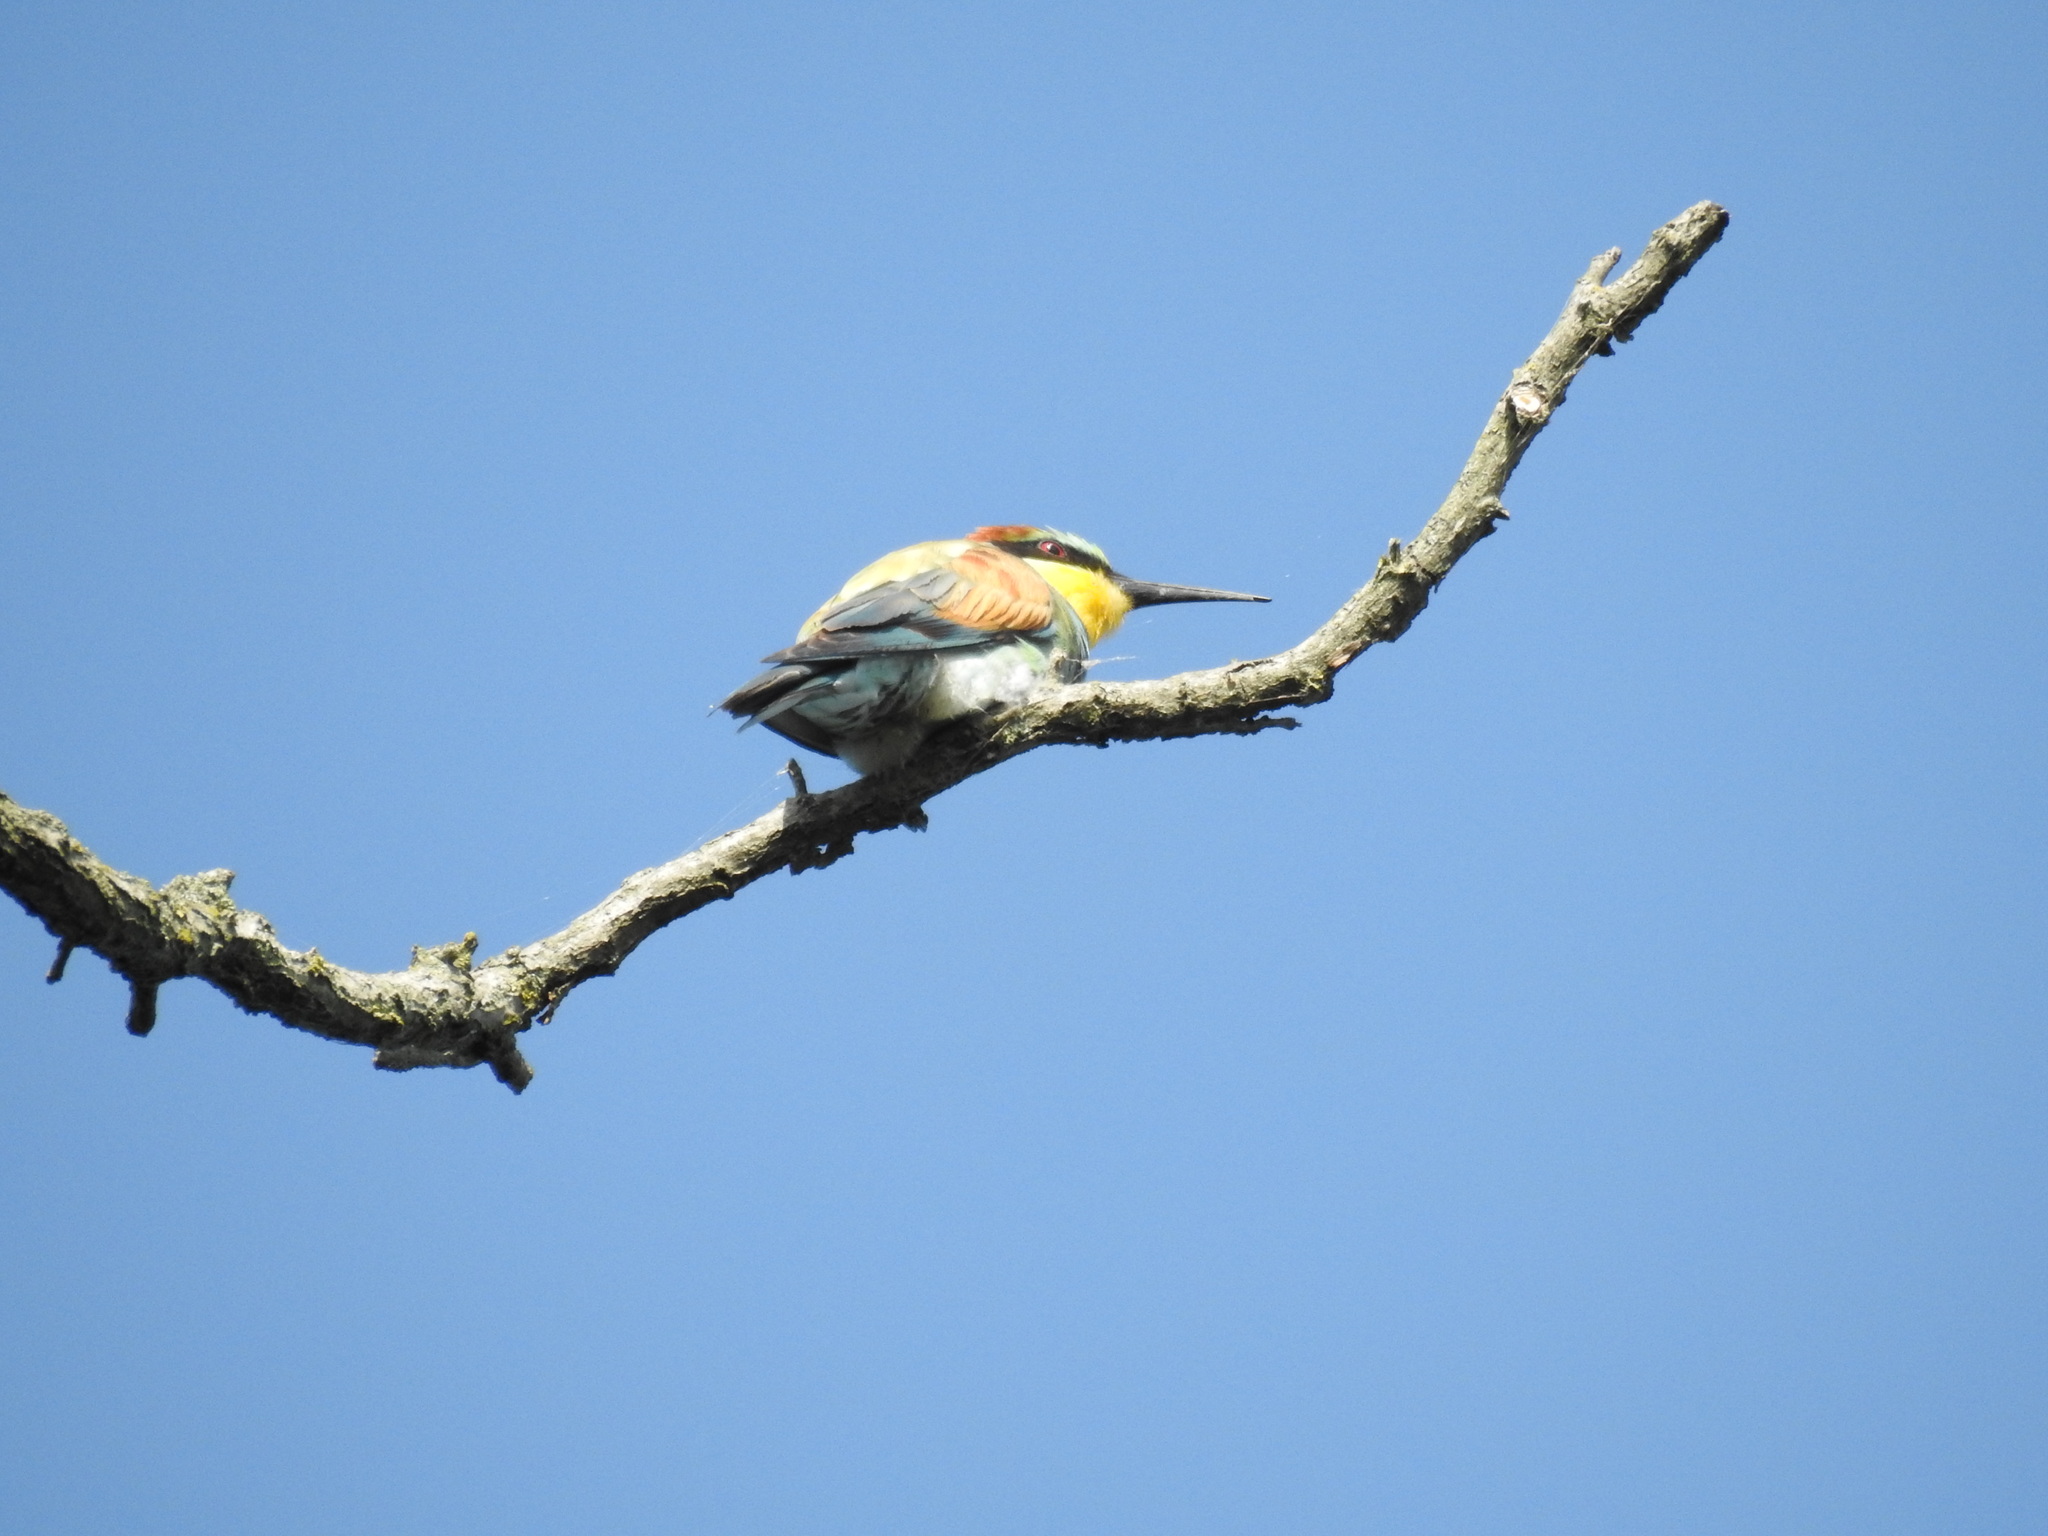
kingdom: Animalia
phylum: Chordata
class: Aves
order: Coraciiformes
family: Meropidae
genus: Merops
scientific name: Merops apiaster
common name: European bee-eater
